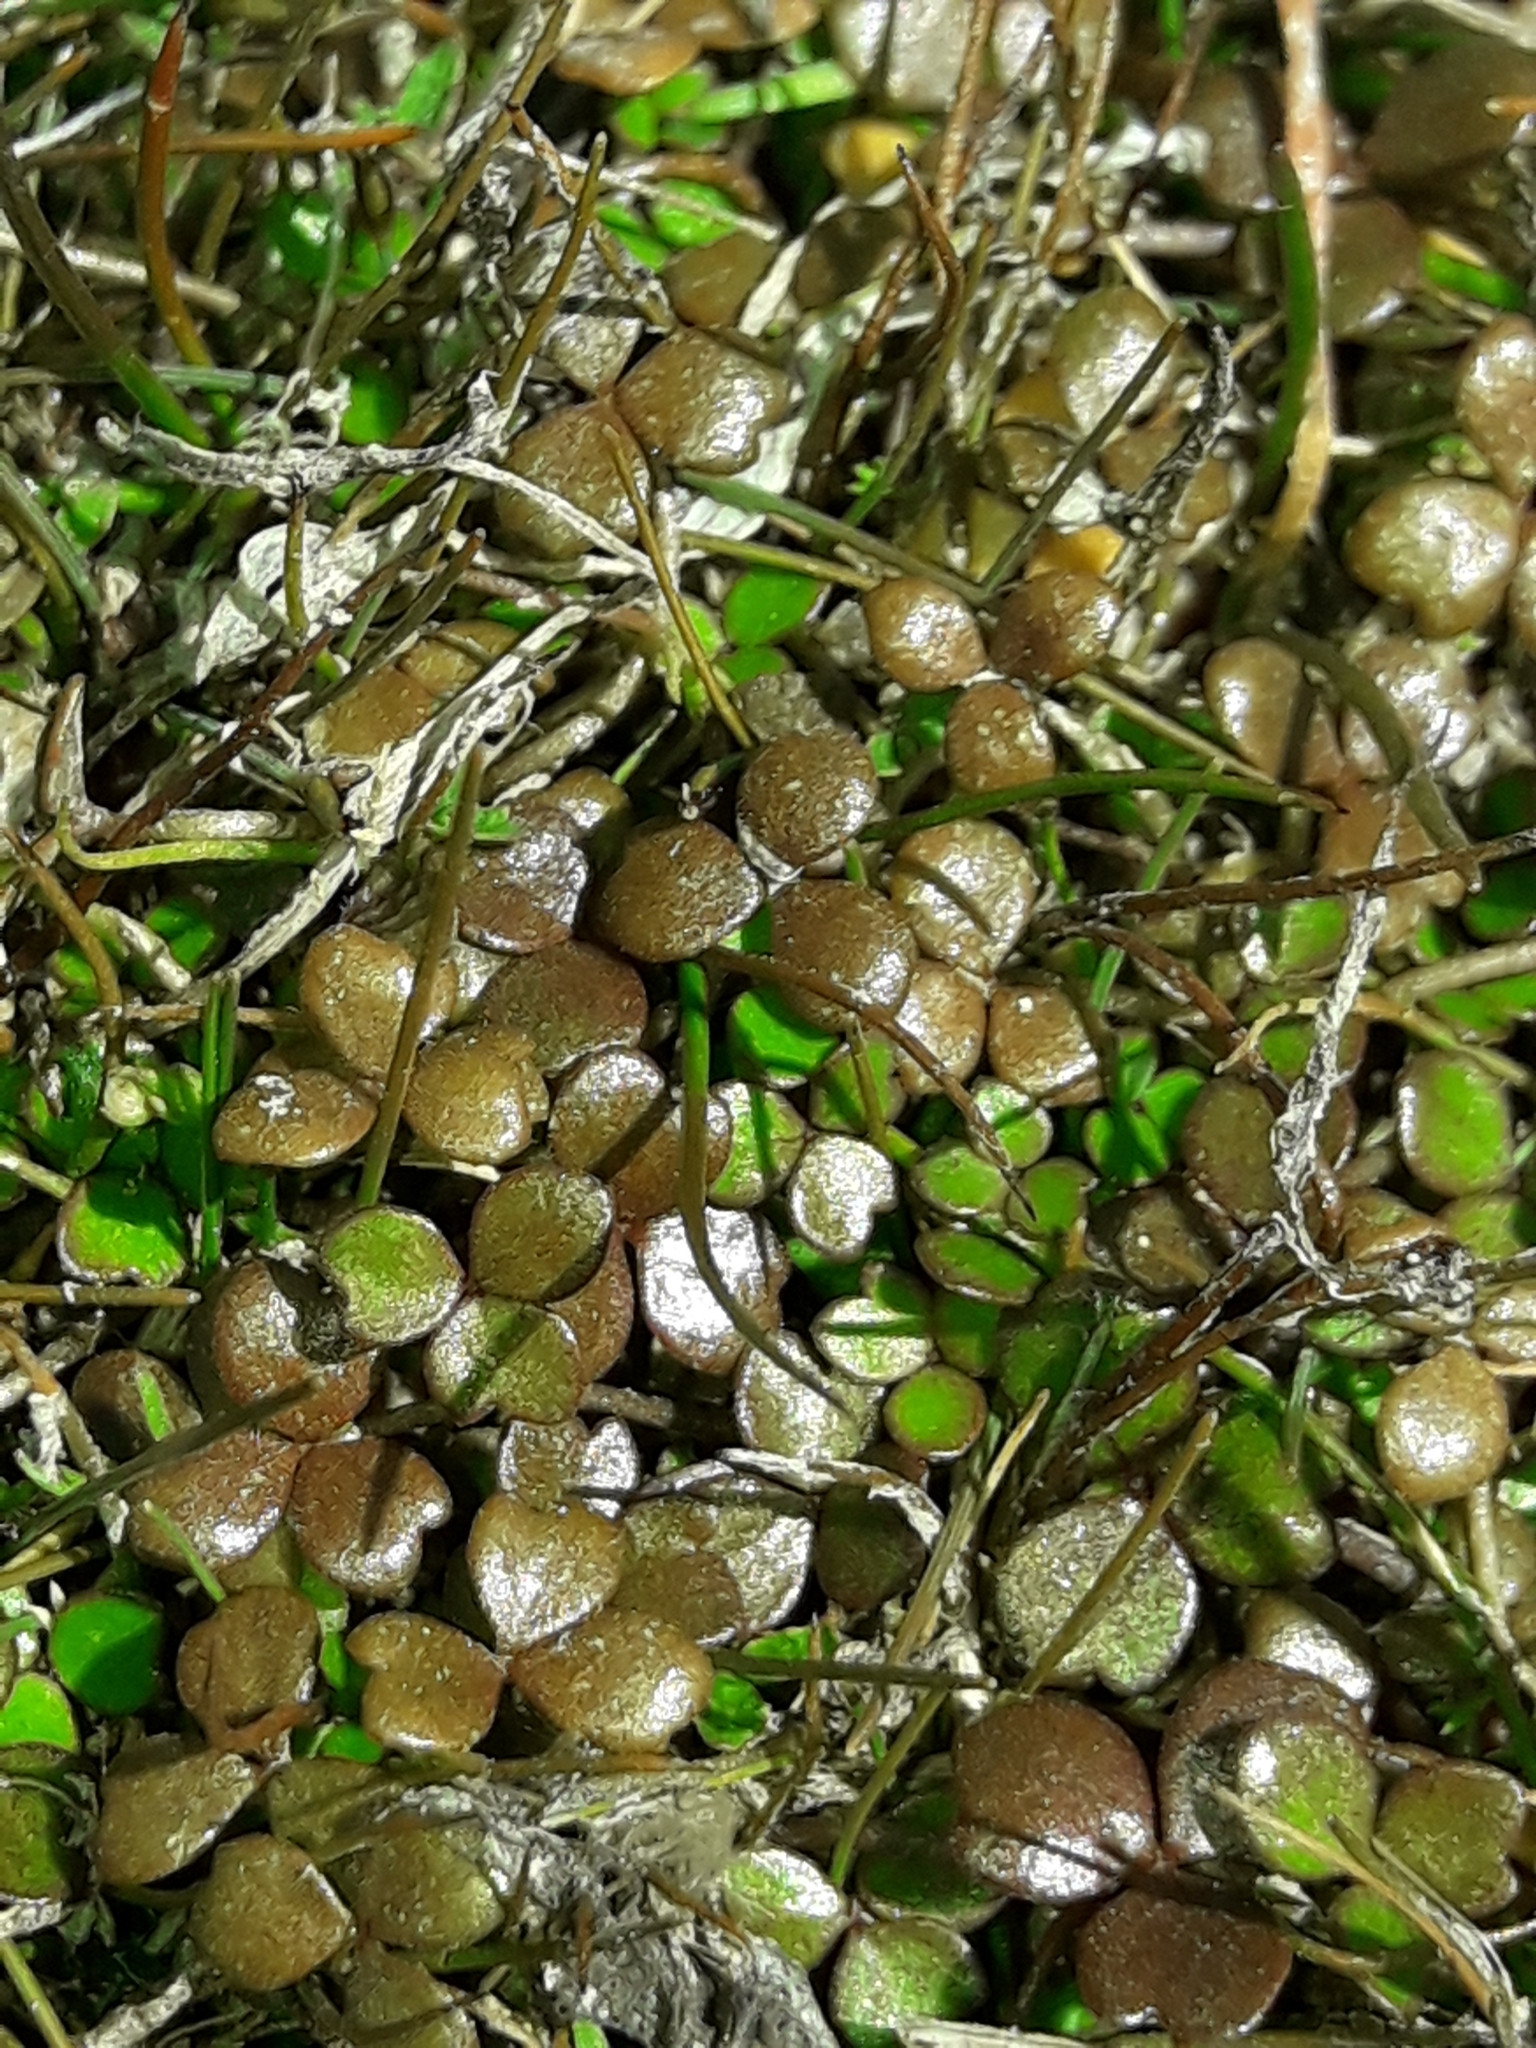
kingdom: Plantae
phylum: Tracheophyta
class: Magnoliopsida
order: Apiales
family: Araliaceae
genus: Hydrocotyle
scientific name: Hydrocotyle sulcata
